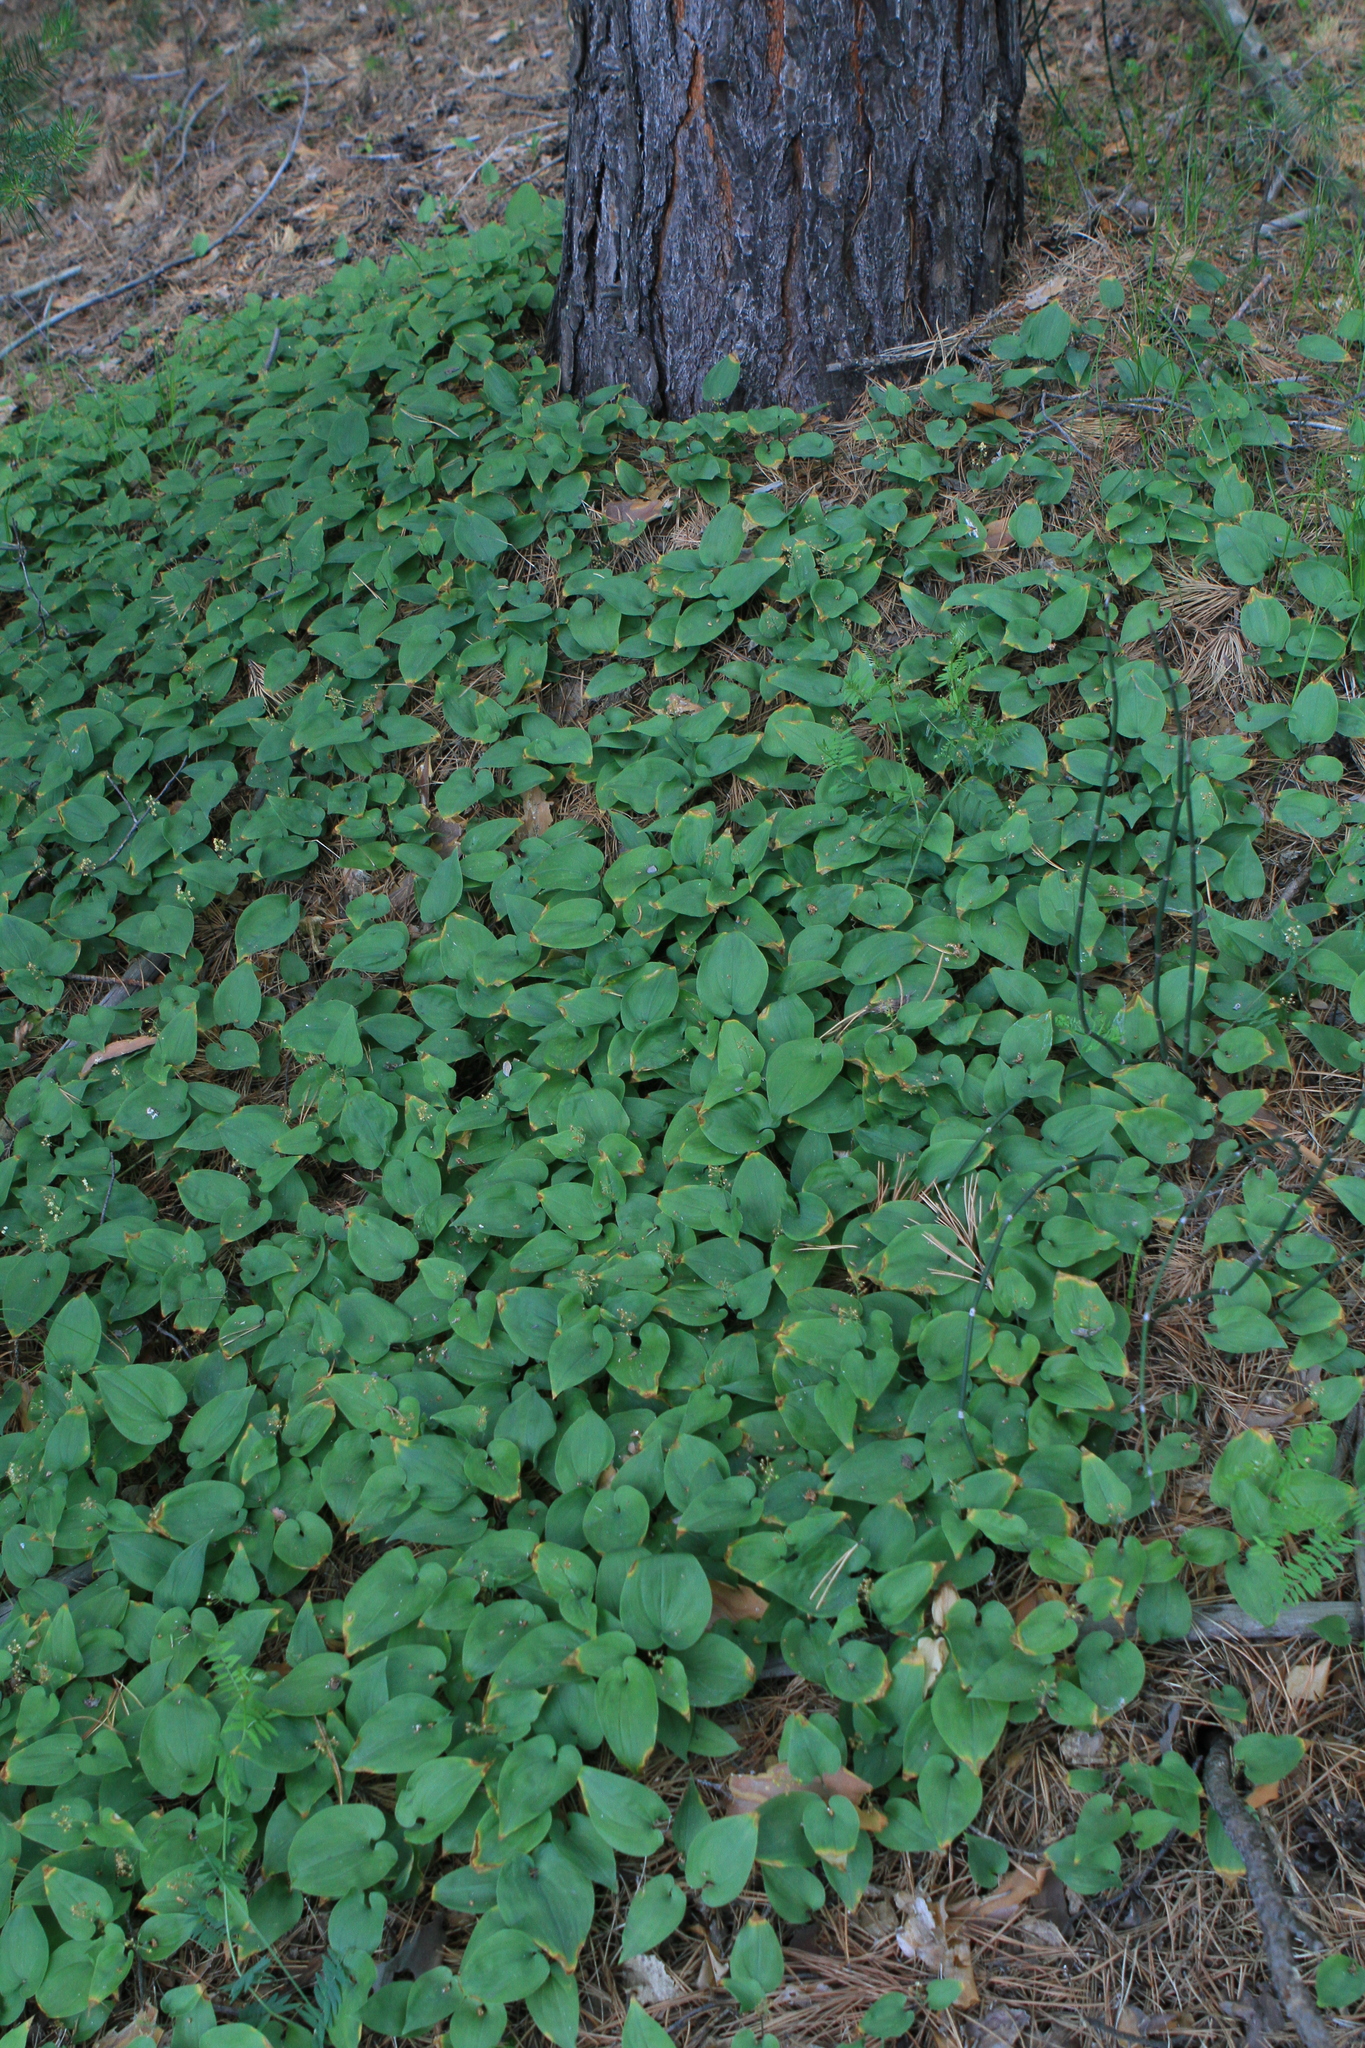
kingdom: Plantae
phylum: Tracheophyta
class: Liliopsida
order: Asparagales
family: Asparagaceae
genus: Maianthemum
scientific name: Maianthemum bifolium
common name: May lily
